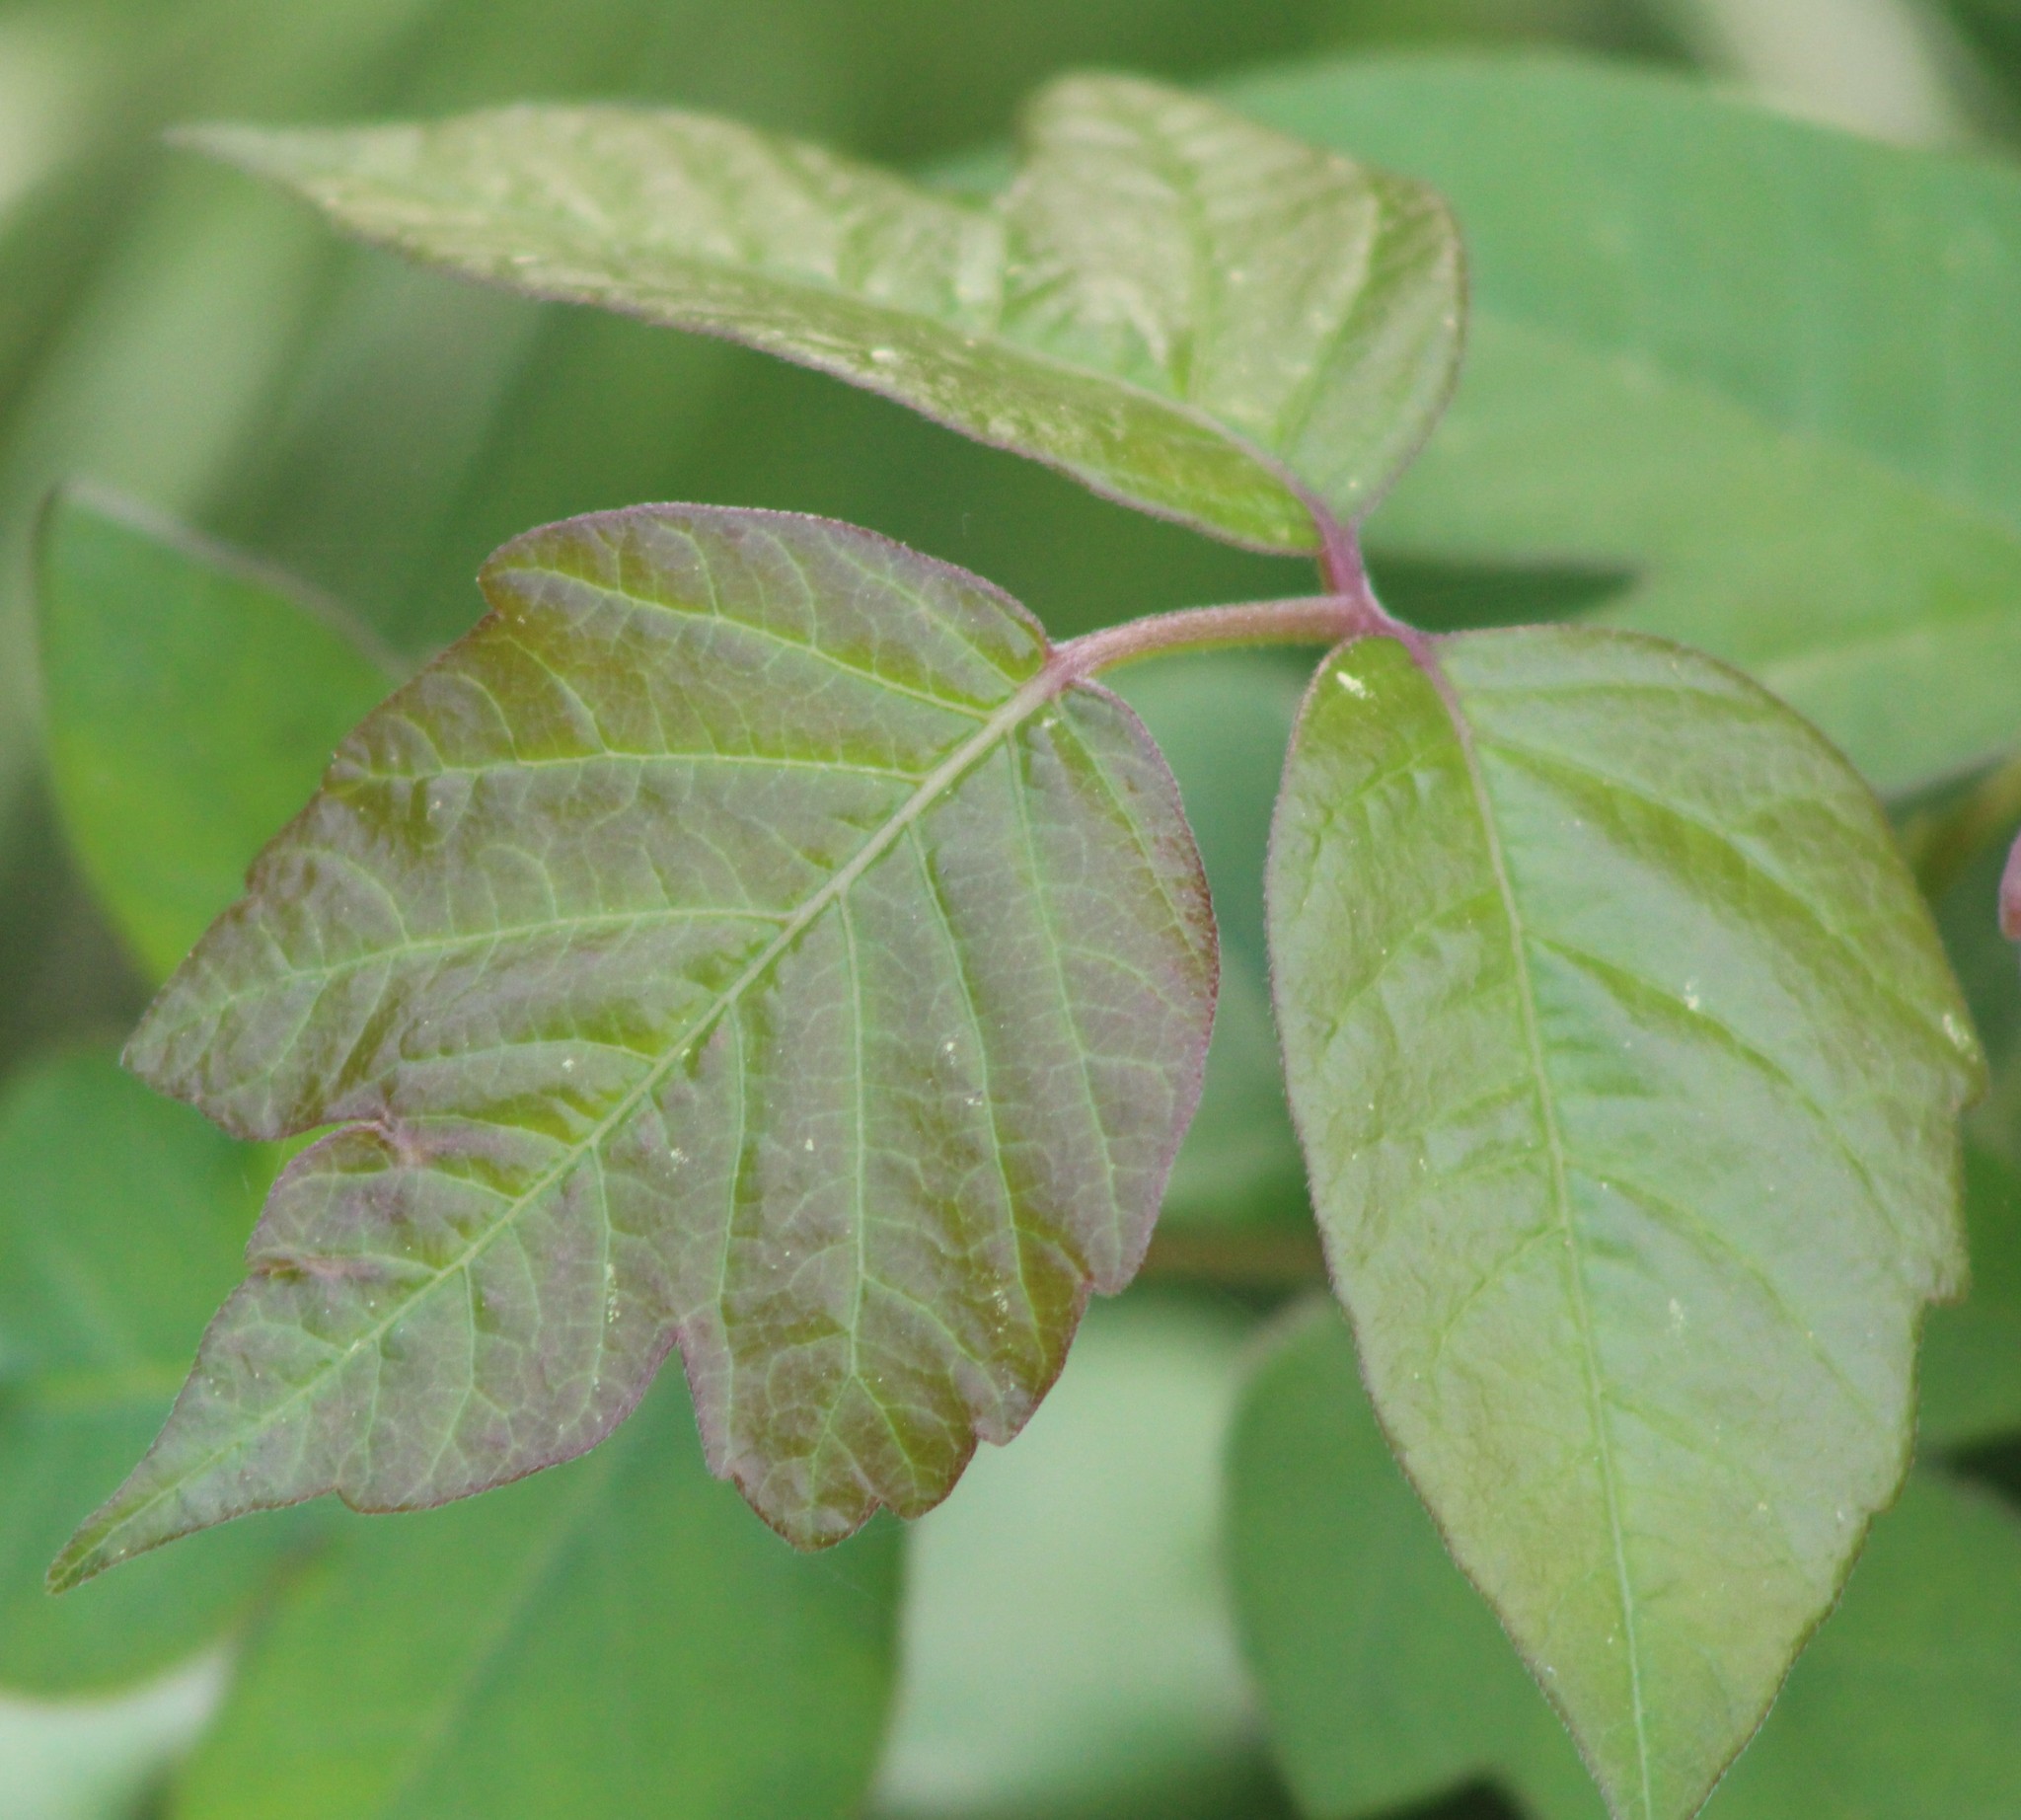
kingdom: Plantae
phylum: Tracheophyta
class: Magnoliopsida
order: Sapindales
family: Anacardiaceae
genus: Toxicodendron
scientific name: Toxicodendron radicans
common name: Poison ivy
